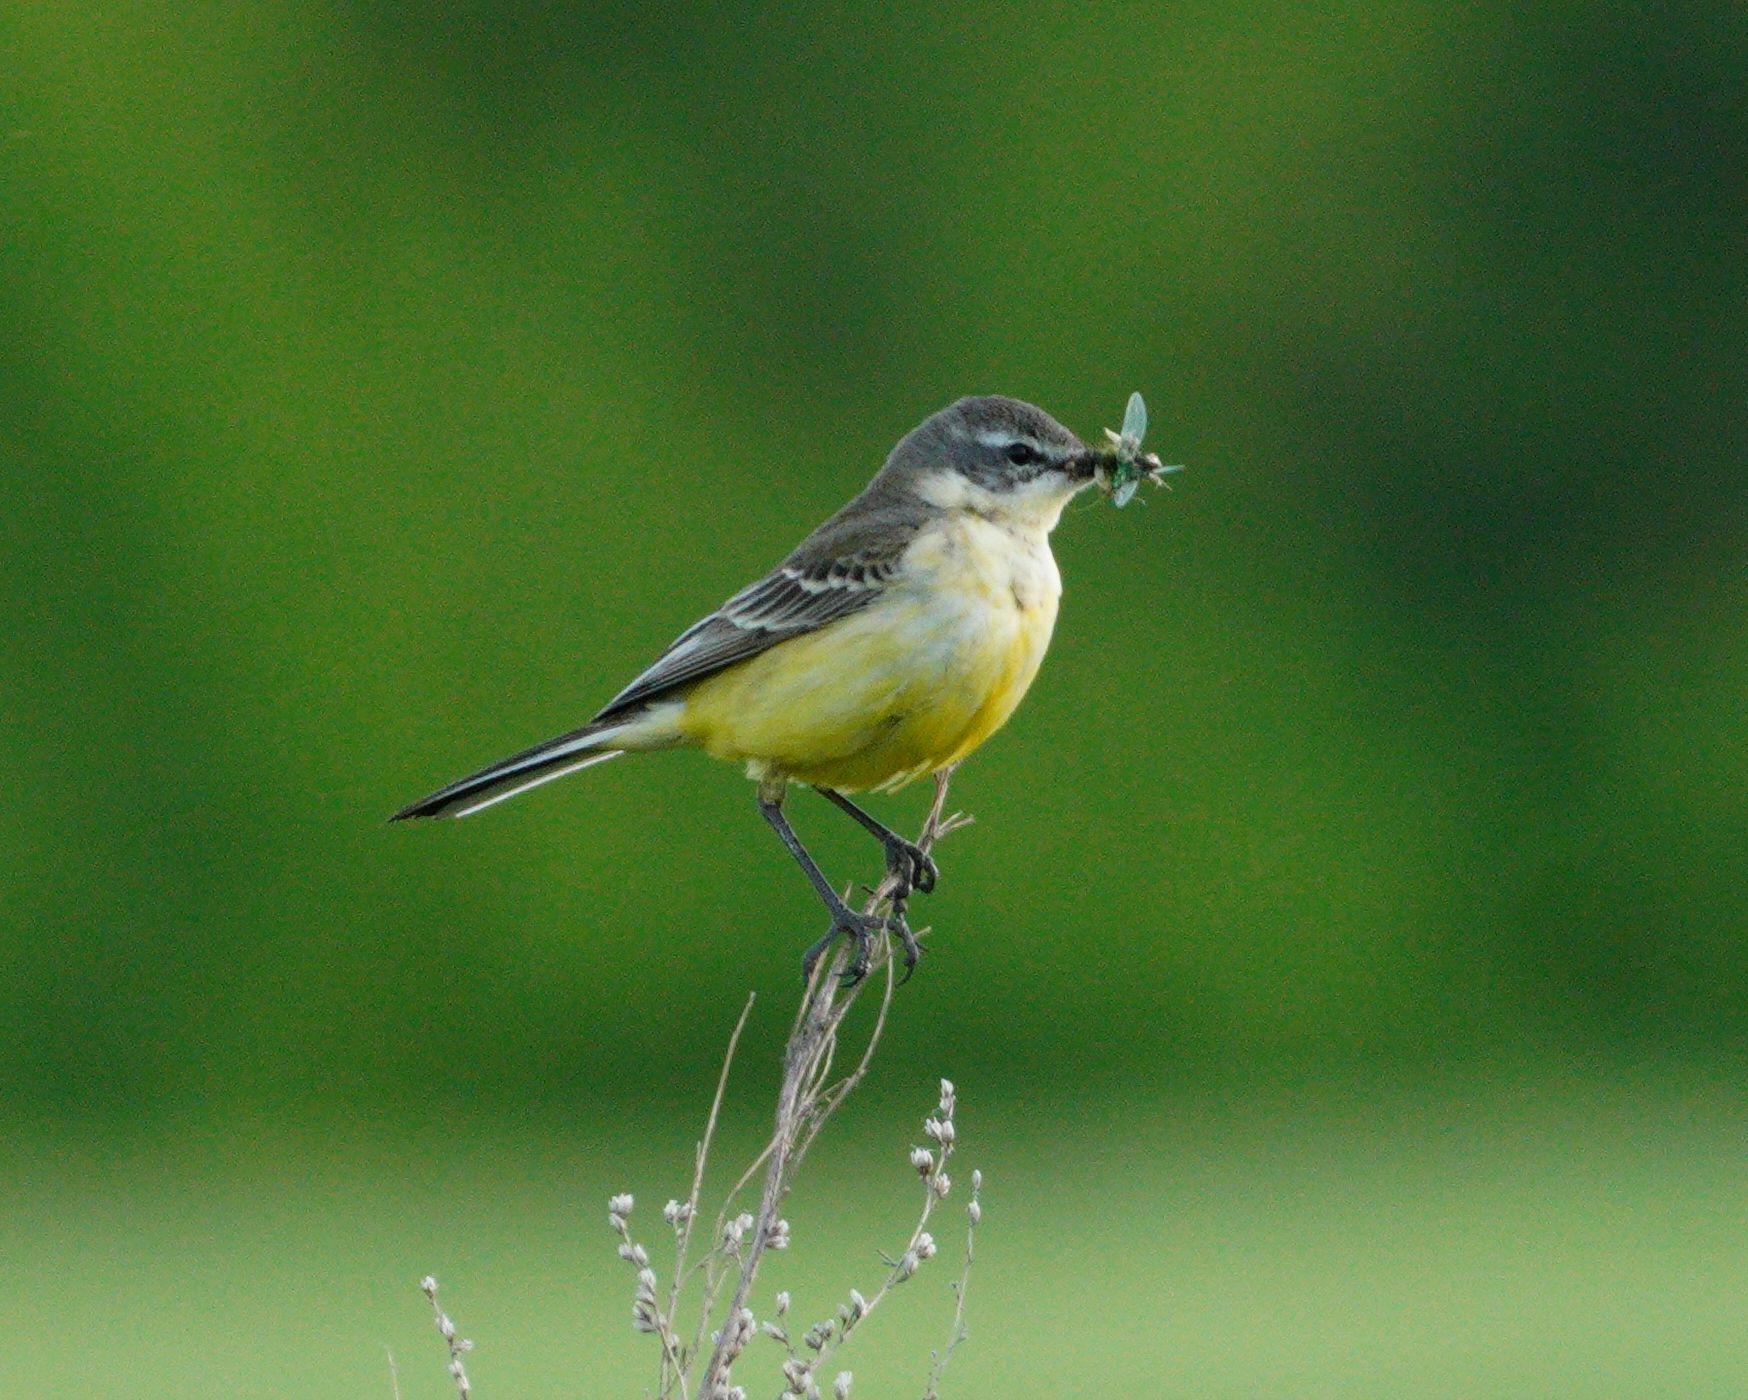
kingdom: Animalia
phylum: Chordata
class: Aves
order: Passeriformes
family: Motacillidae
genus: Motacilla
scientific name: Motacilla flava
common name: Western yellow wagtail
